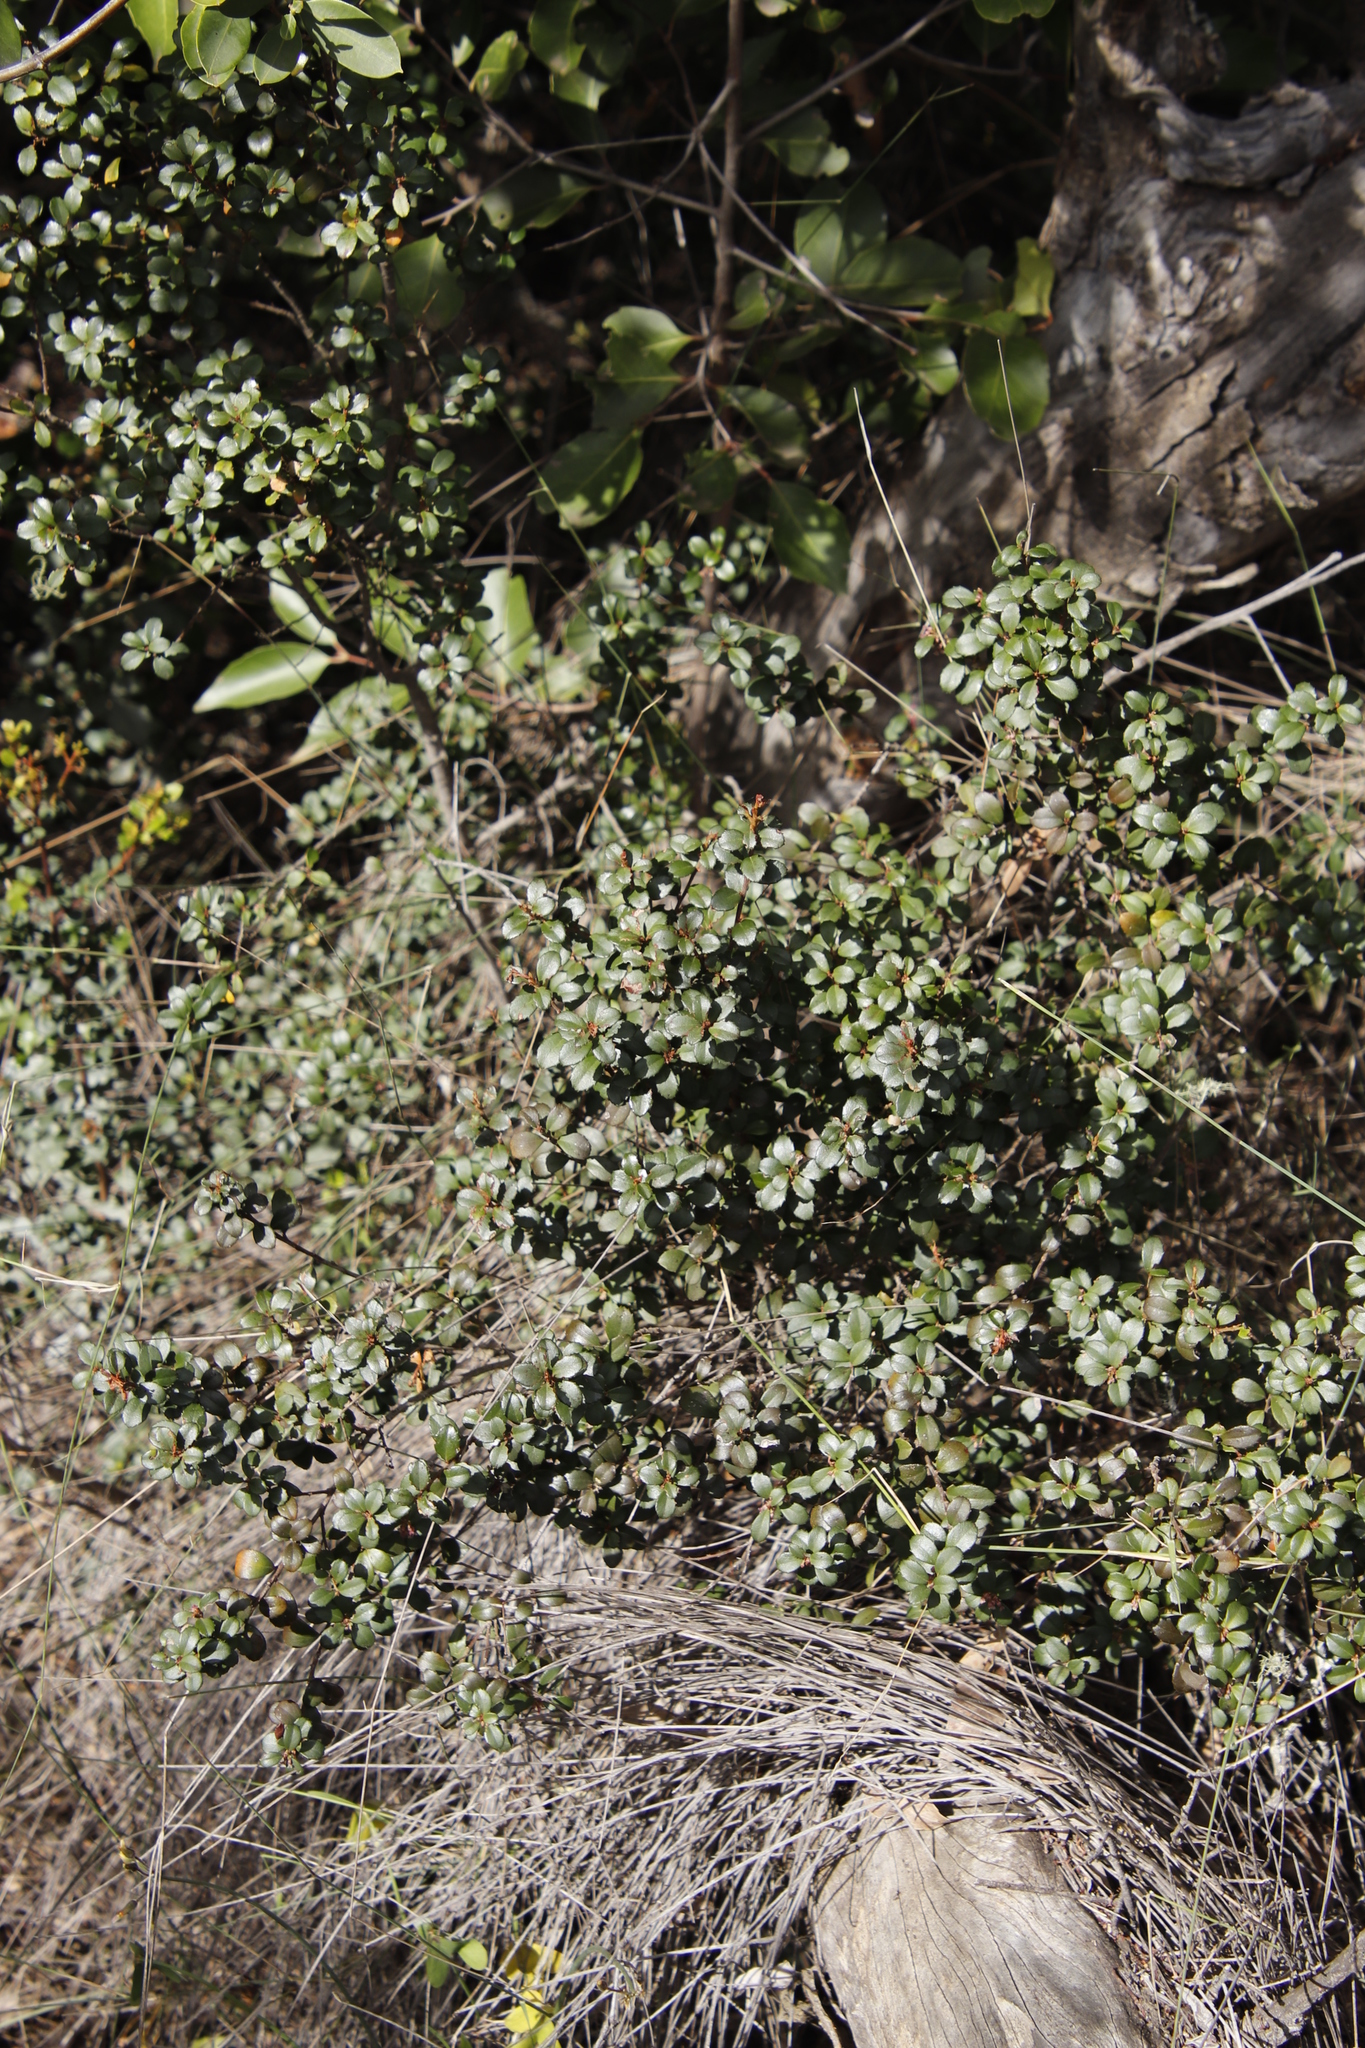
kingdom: Plantae
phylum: Tracheophyta
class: Magnoliopsida
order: Ericales
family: Primulaceae
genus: Myrsine
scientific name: Myrsine africana
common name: African-boxwood
